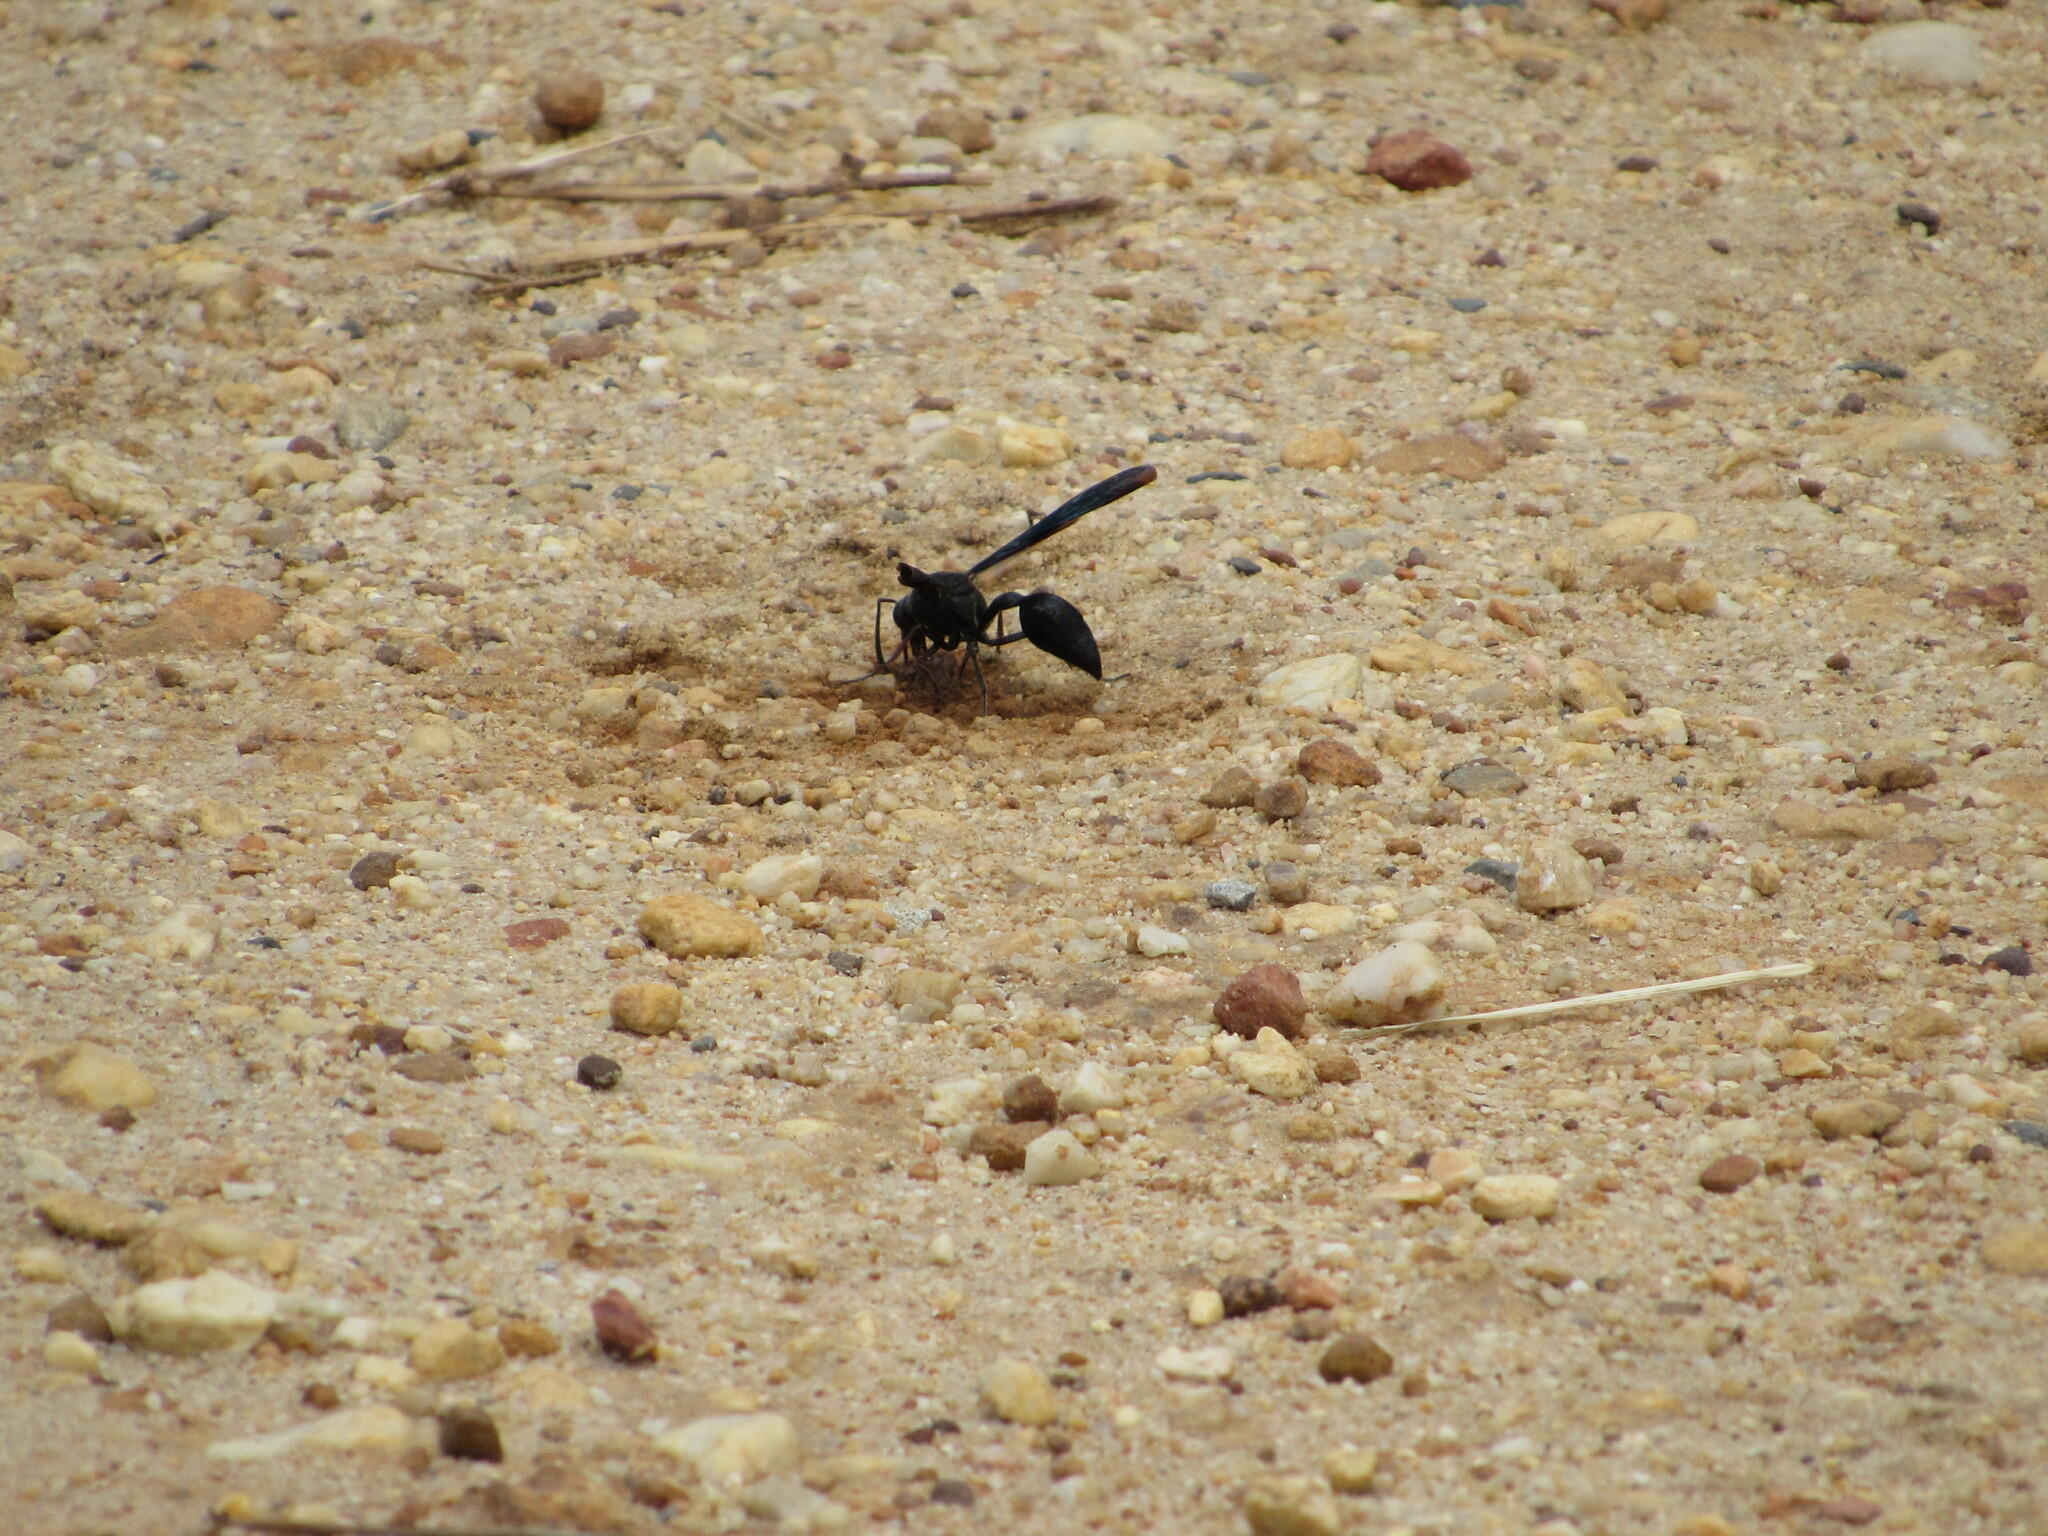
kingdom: Animalia
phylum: Arthropoda
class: Insecta
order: Hymenoptera
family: Eumenidae
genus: Delta
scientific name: Delta bonellii
